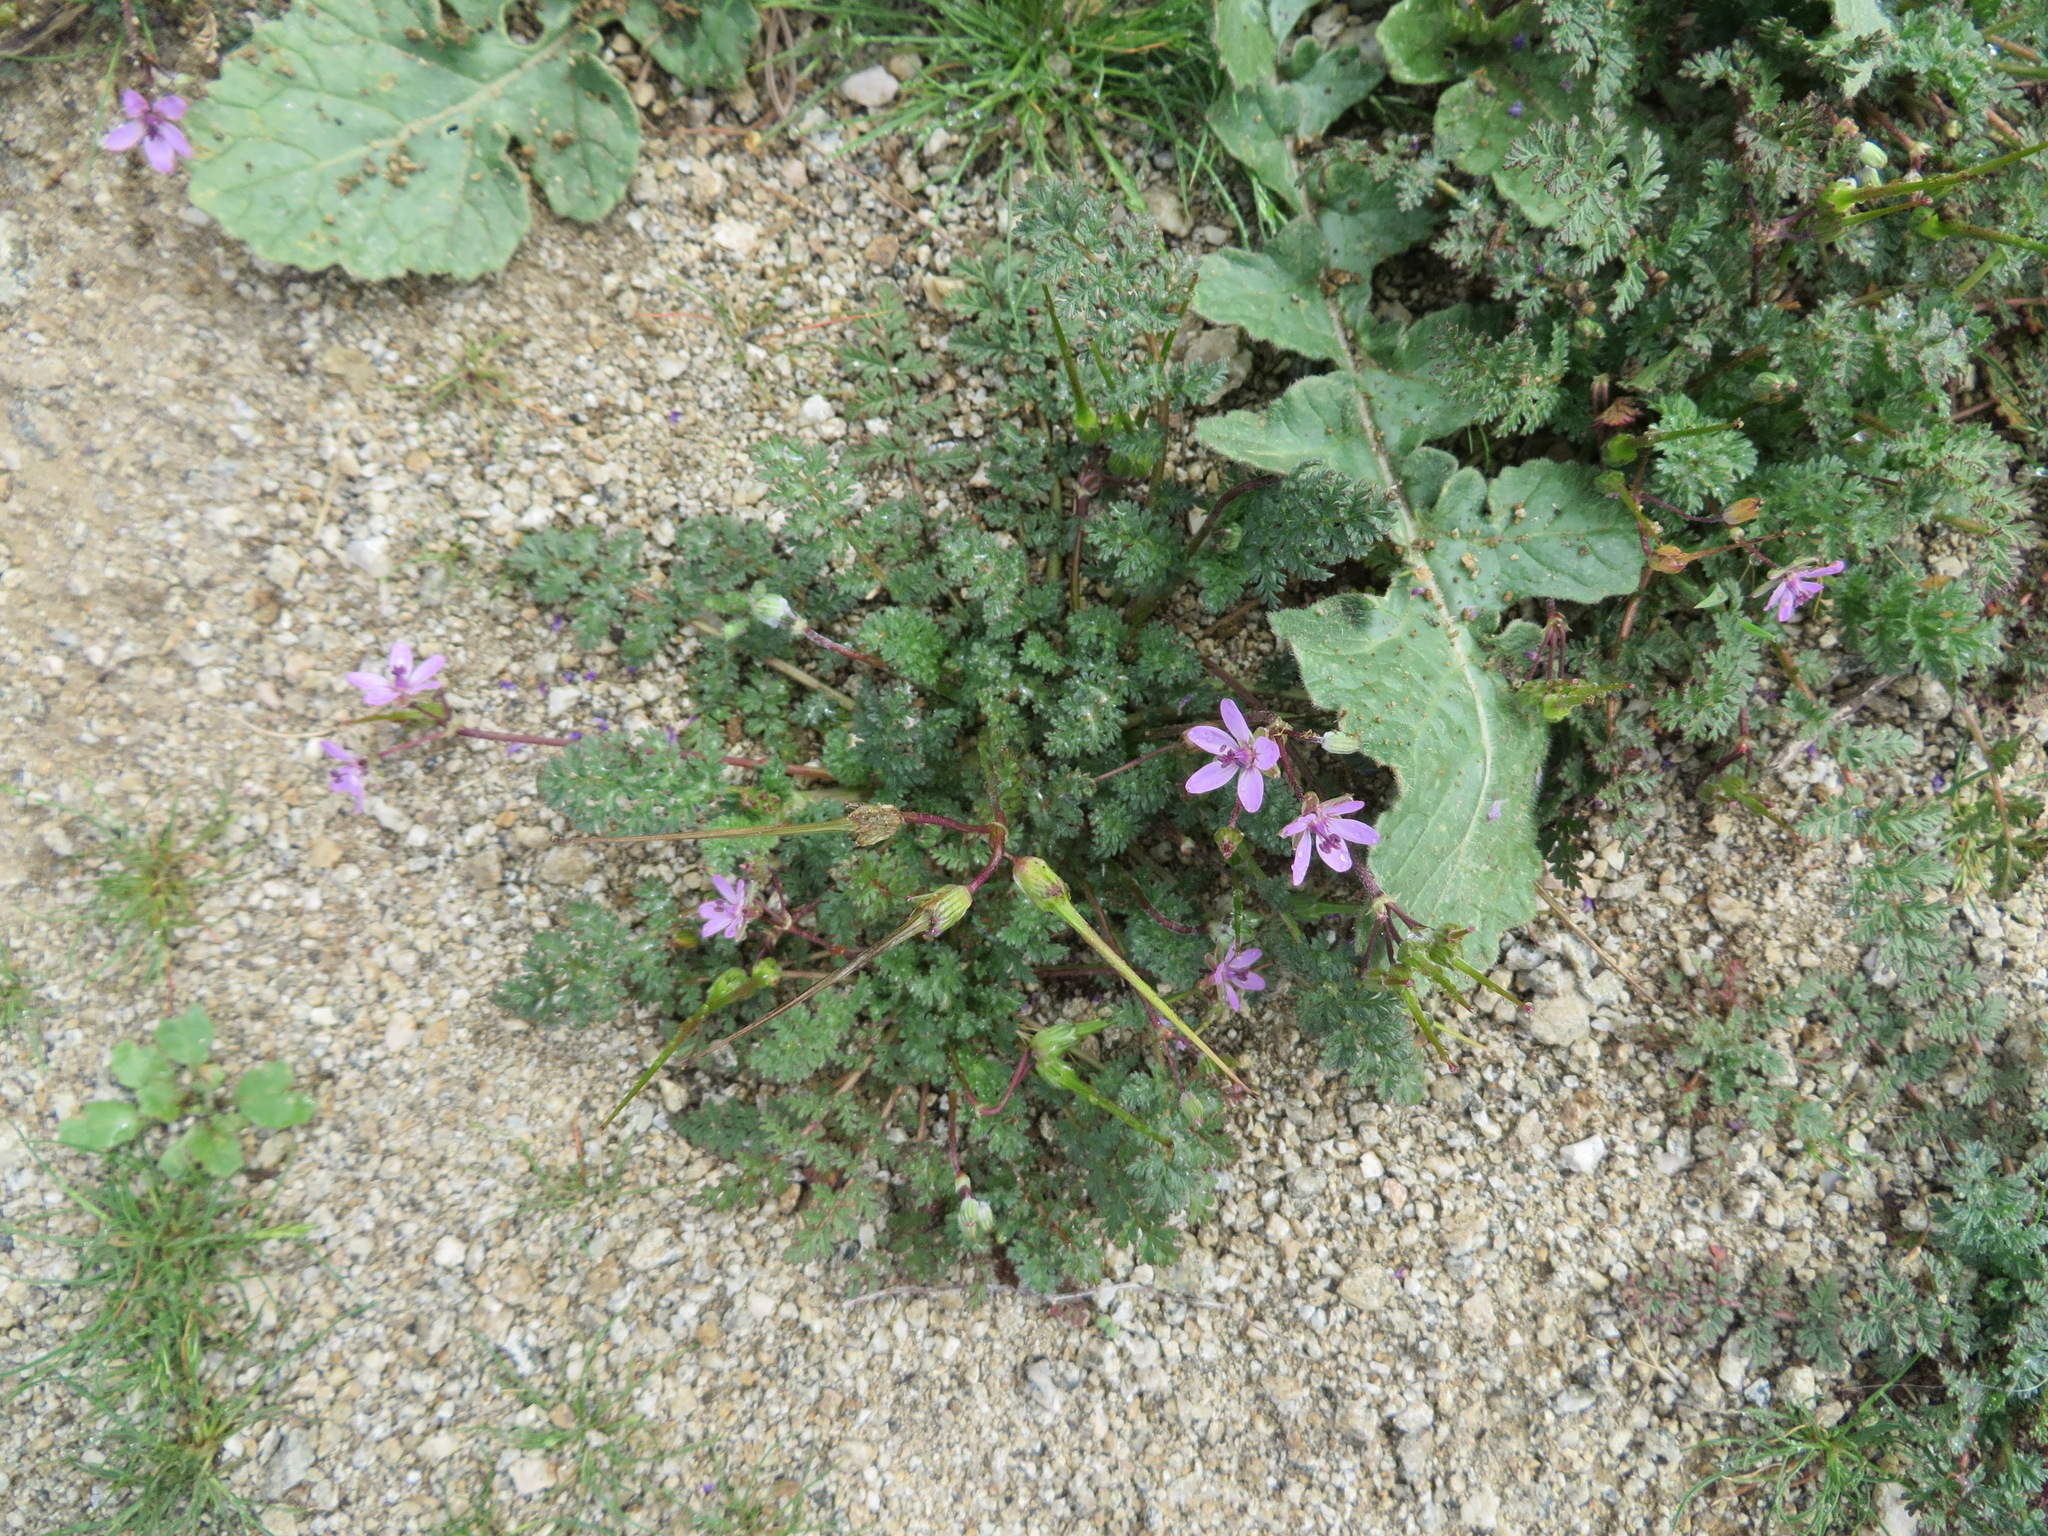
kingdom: Plantae
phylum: Tracheophyta
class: Magnoliopsida
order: Geraniales
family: Geraniaceae
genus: Erodium
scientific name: Erodium cicutarium
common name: Common stork's-bill
